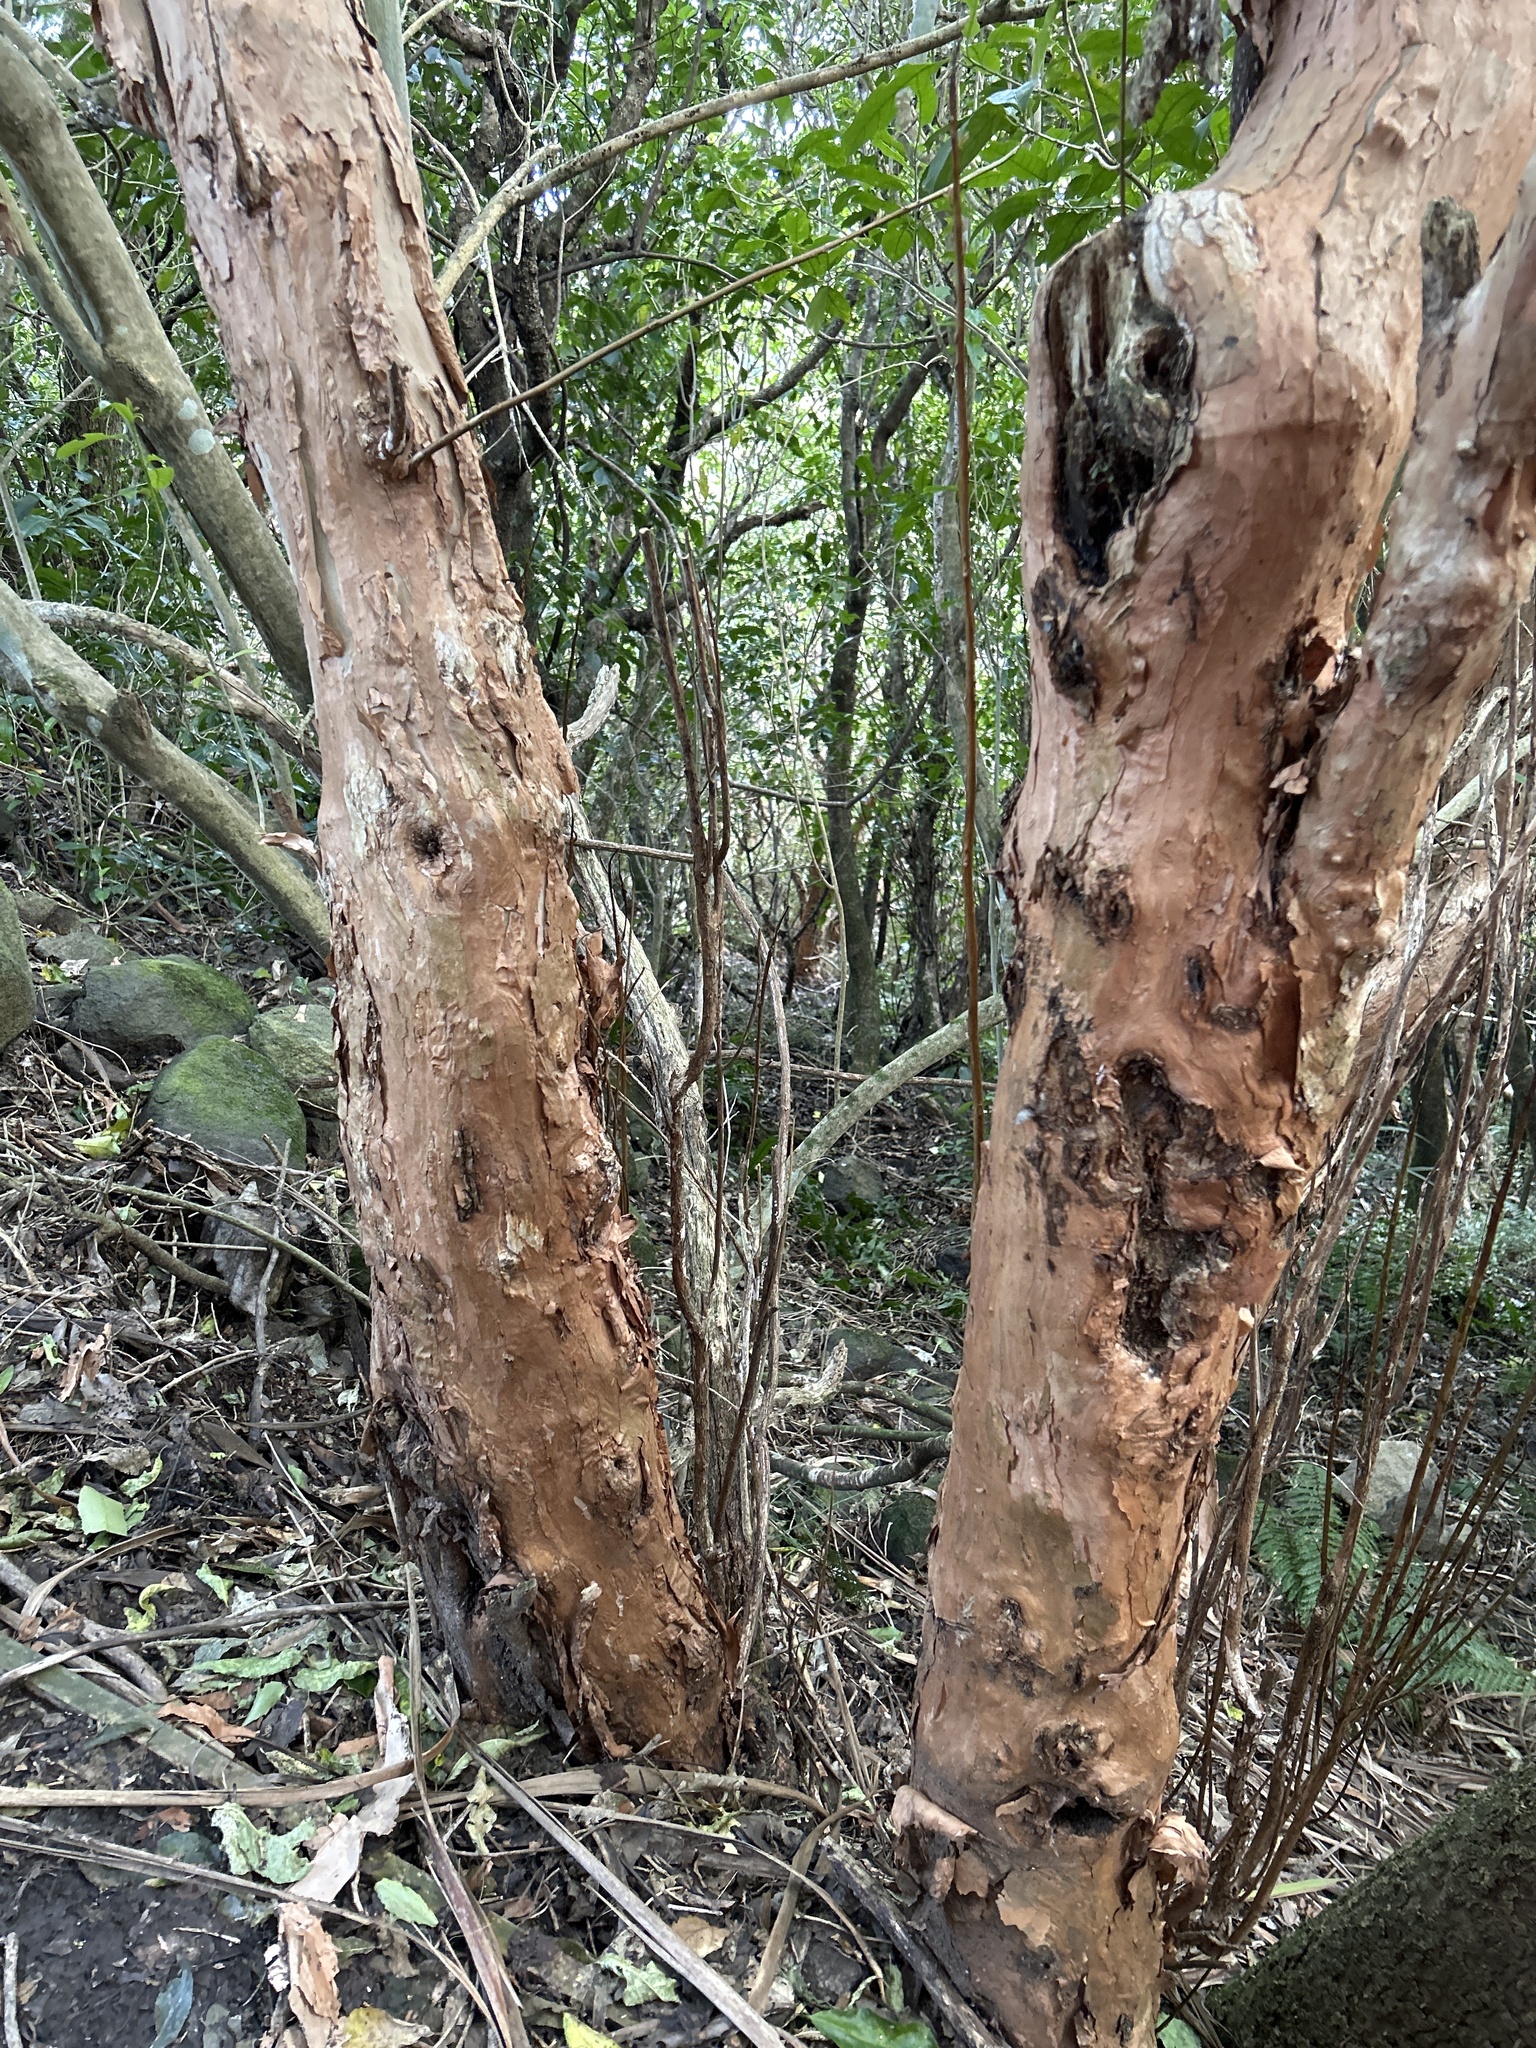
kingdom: Plantae
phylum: Tracheophyta
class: Magnoliopsida
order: Myrtales
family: Onagraceae
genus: Fuchsia
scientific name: Fuchsia excorticata
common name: Tree fuchsia
